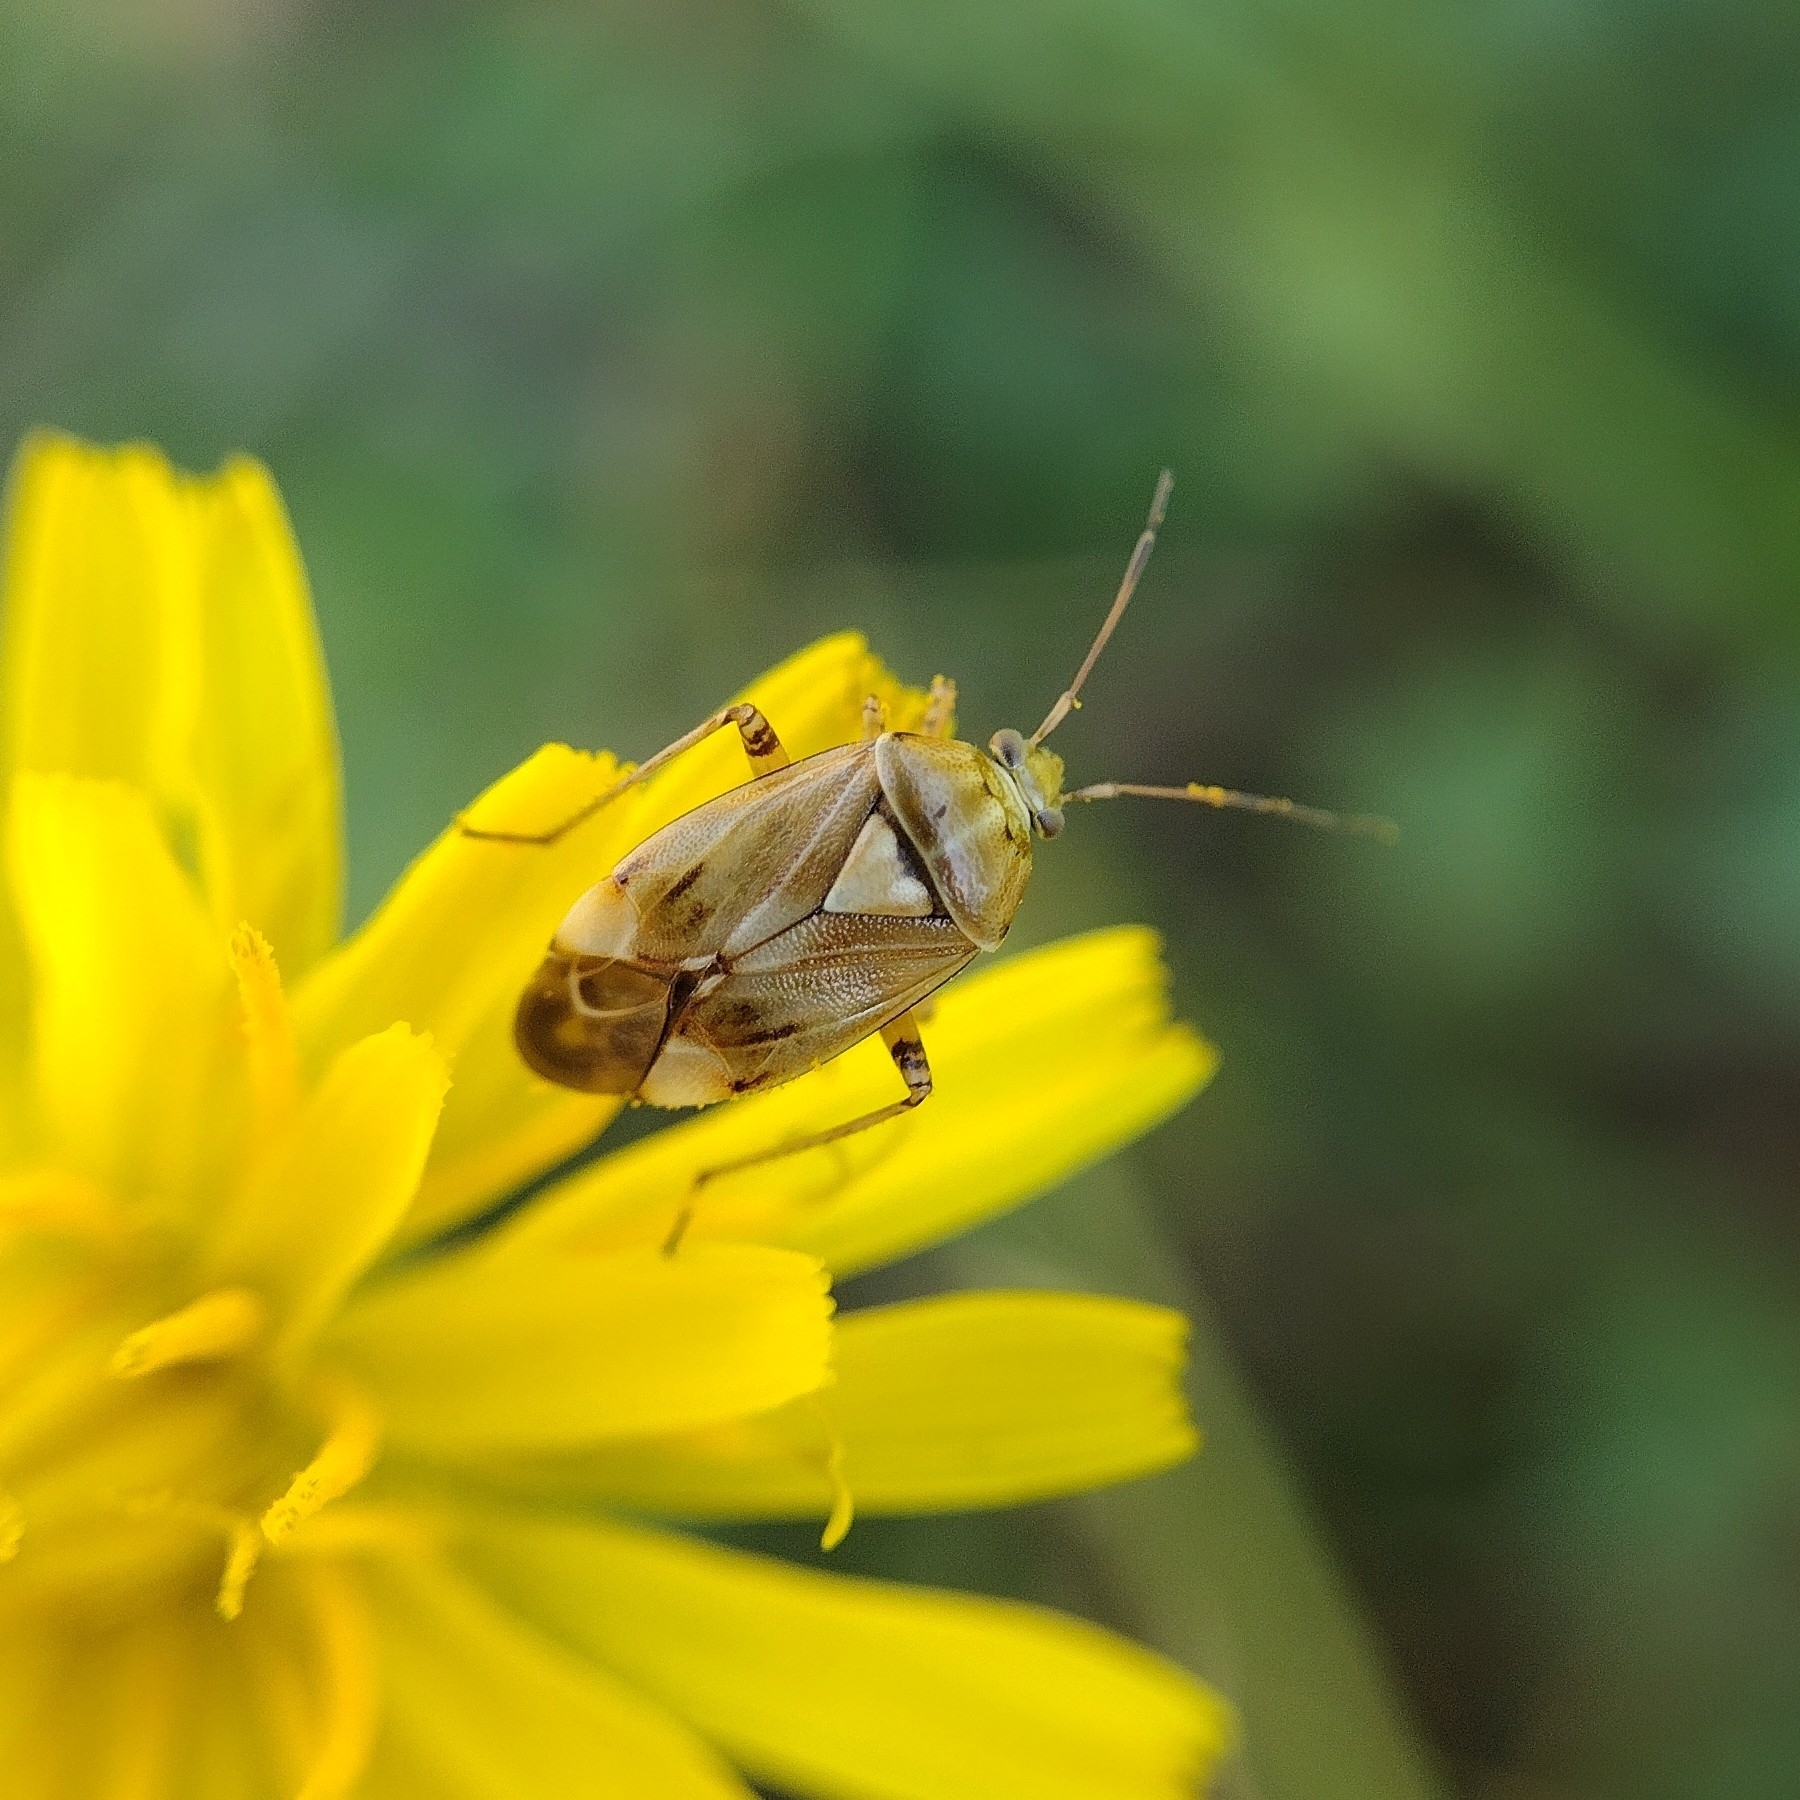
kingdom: Animalia
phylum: Arthropoda
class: Insecta
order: Hemiptera
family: Miridae
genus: Lygus
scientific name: Lygus pratensis
